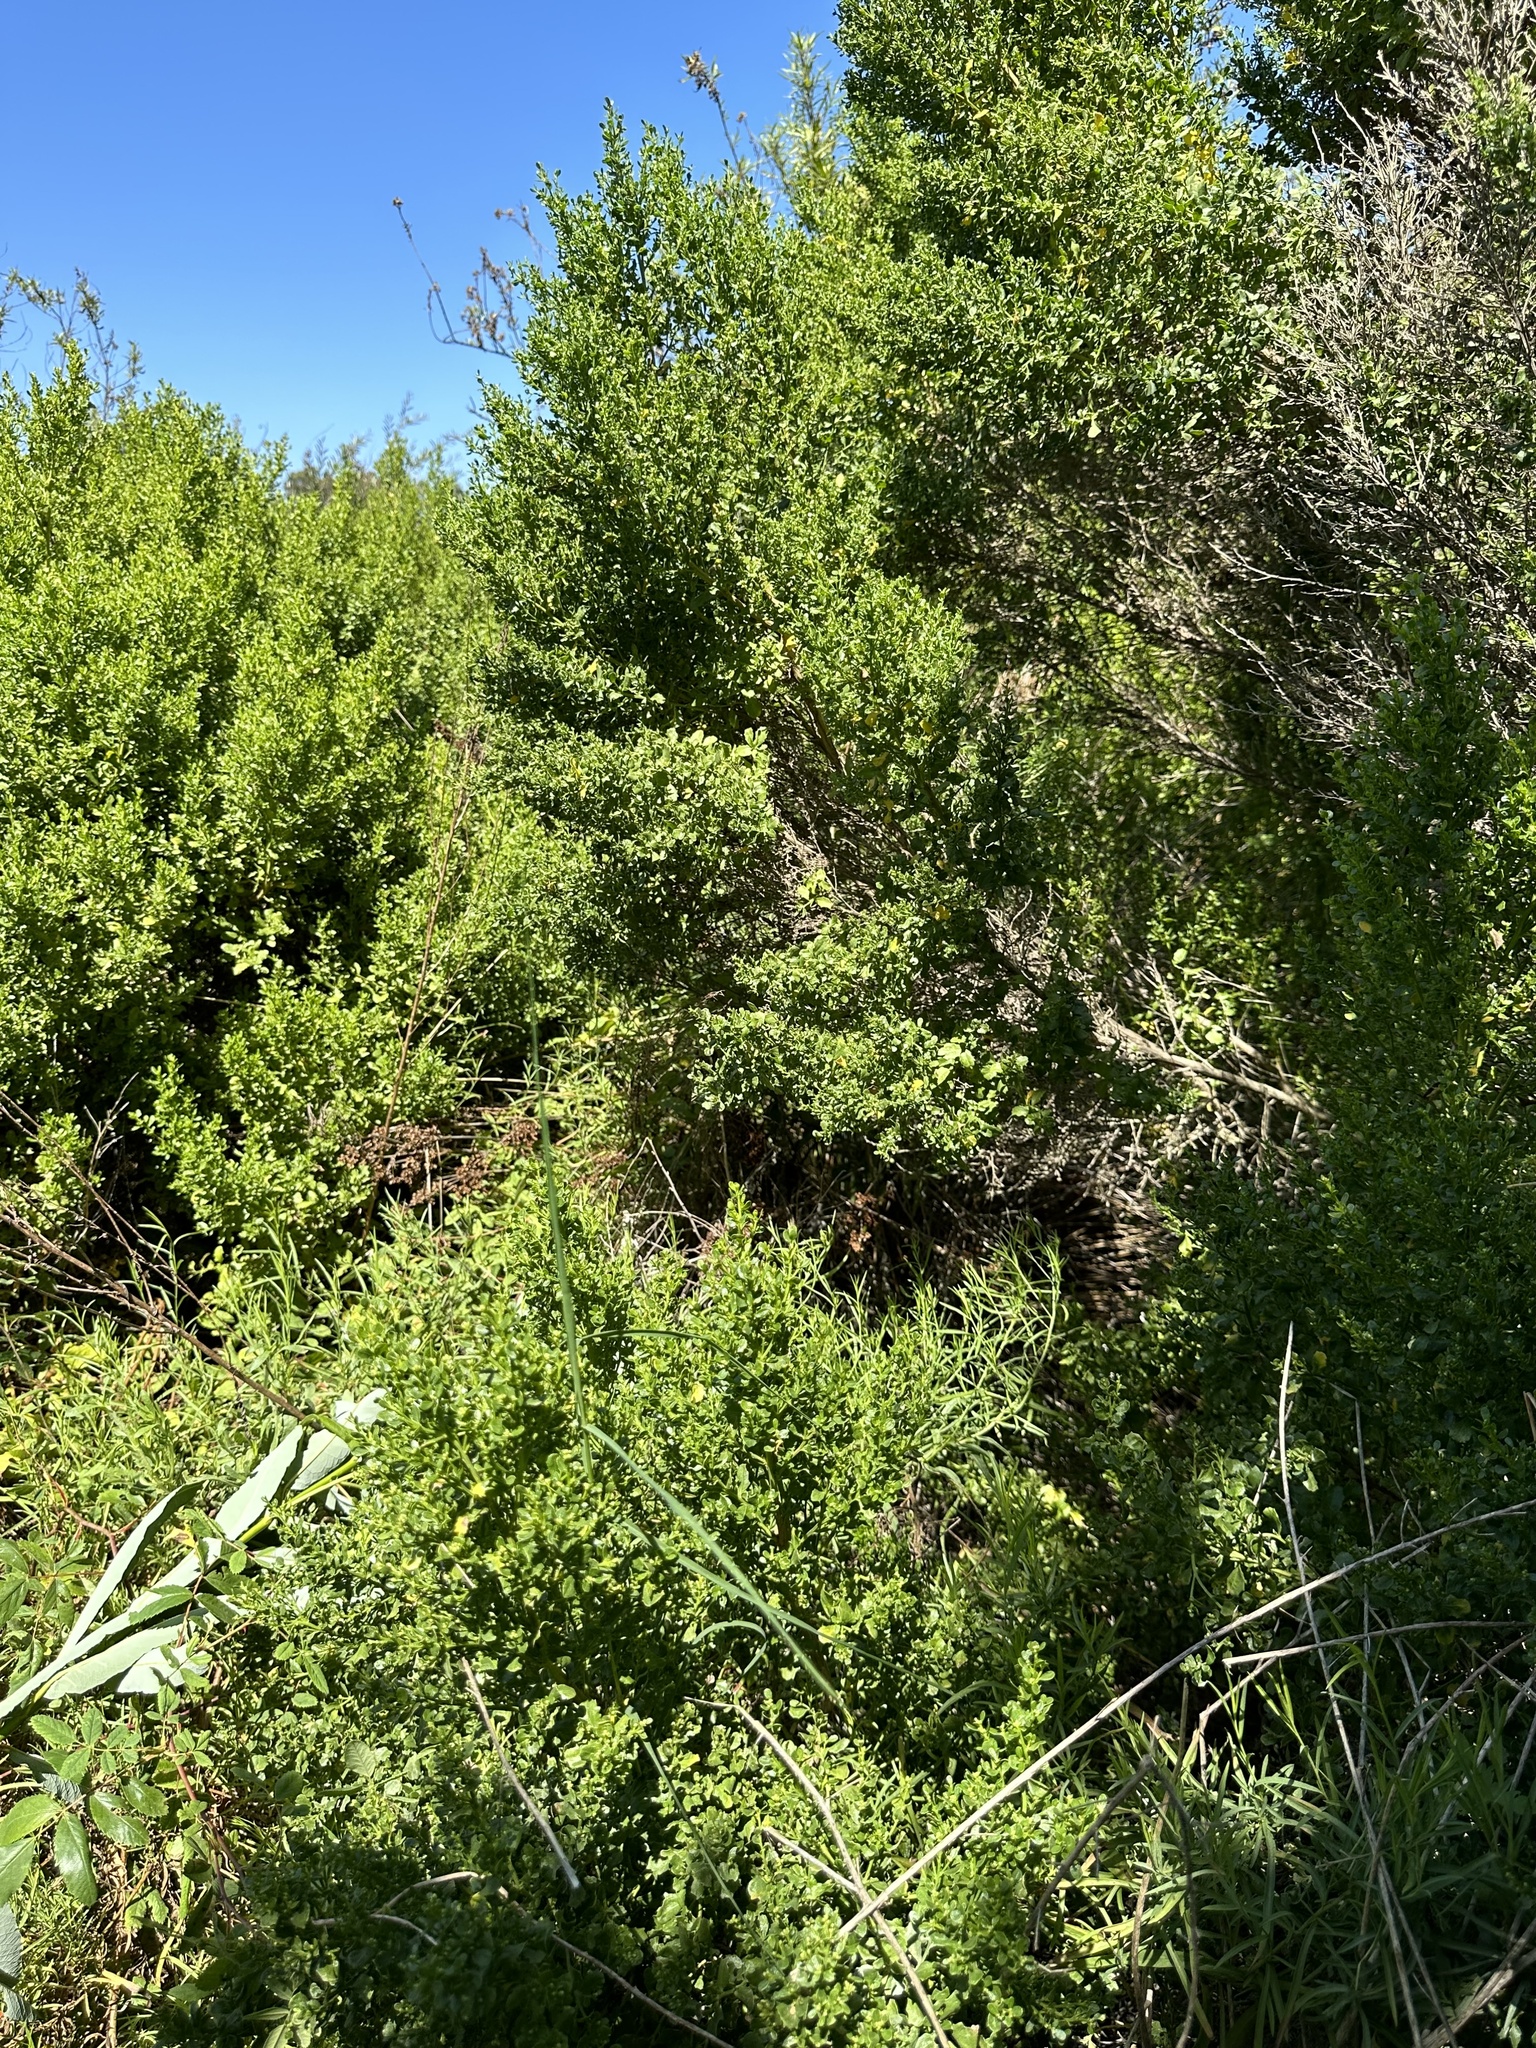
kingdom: Plantae
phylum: Tracheophyta
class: Magnoliopsida
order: Asterales
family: Asteraceae
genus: Baccharis
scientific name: Baccharis pilularis
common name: Coyotebrush
